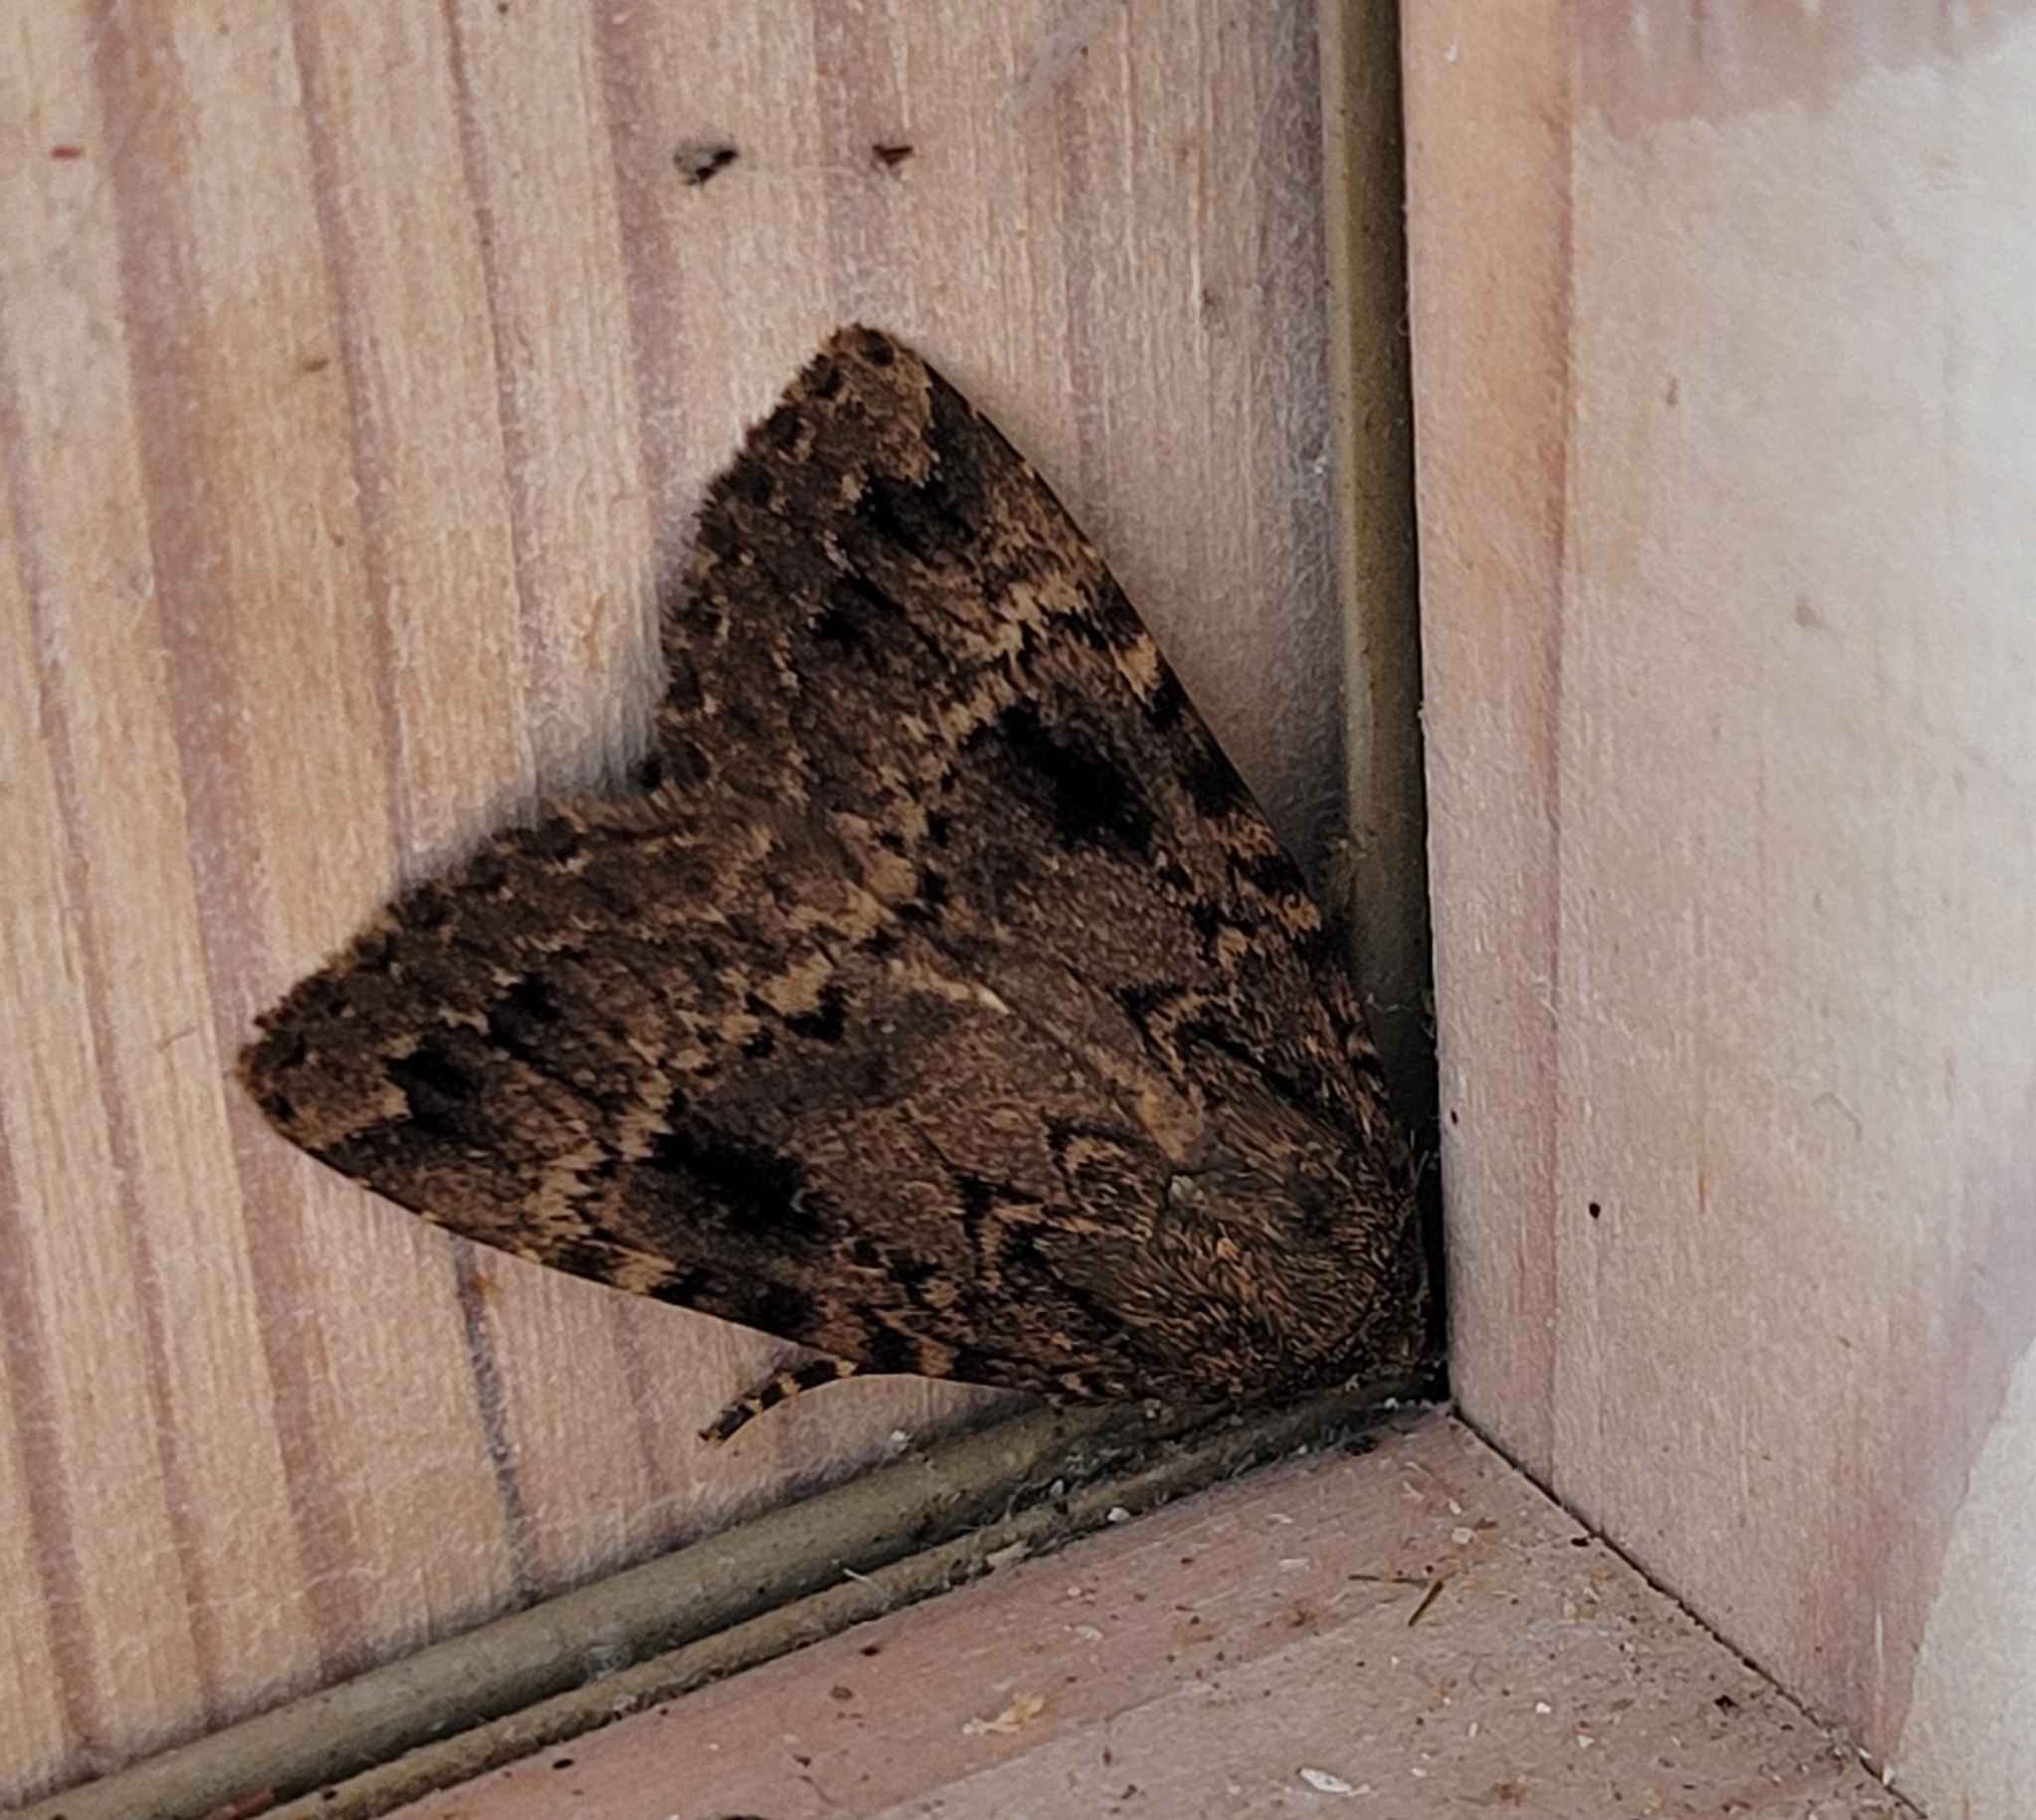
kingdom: Animalia
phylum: Arthropoda
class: Insecta
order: Lepidoptera
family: Noctuidae
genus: Amphipyra
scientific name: Amphipyra pyramidea
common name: Copper underwing
